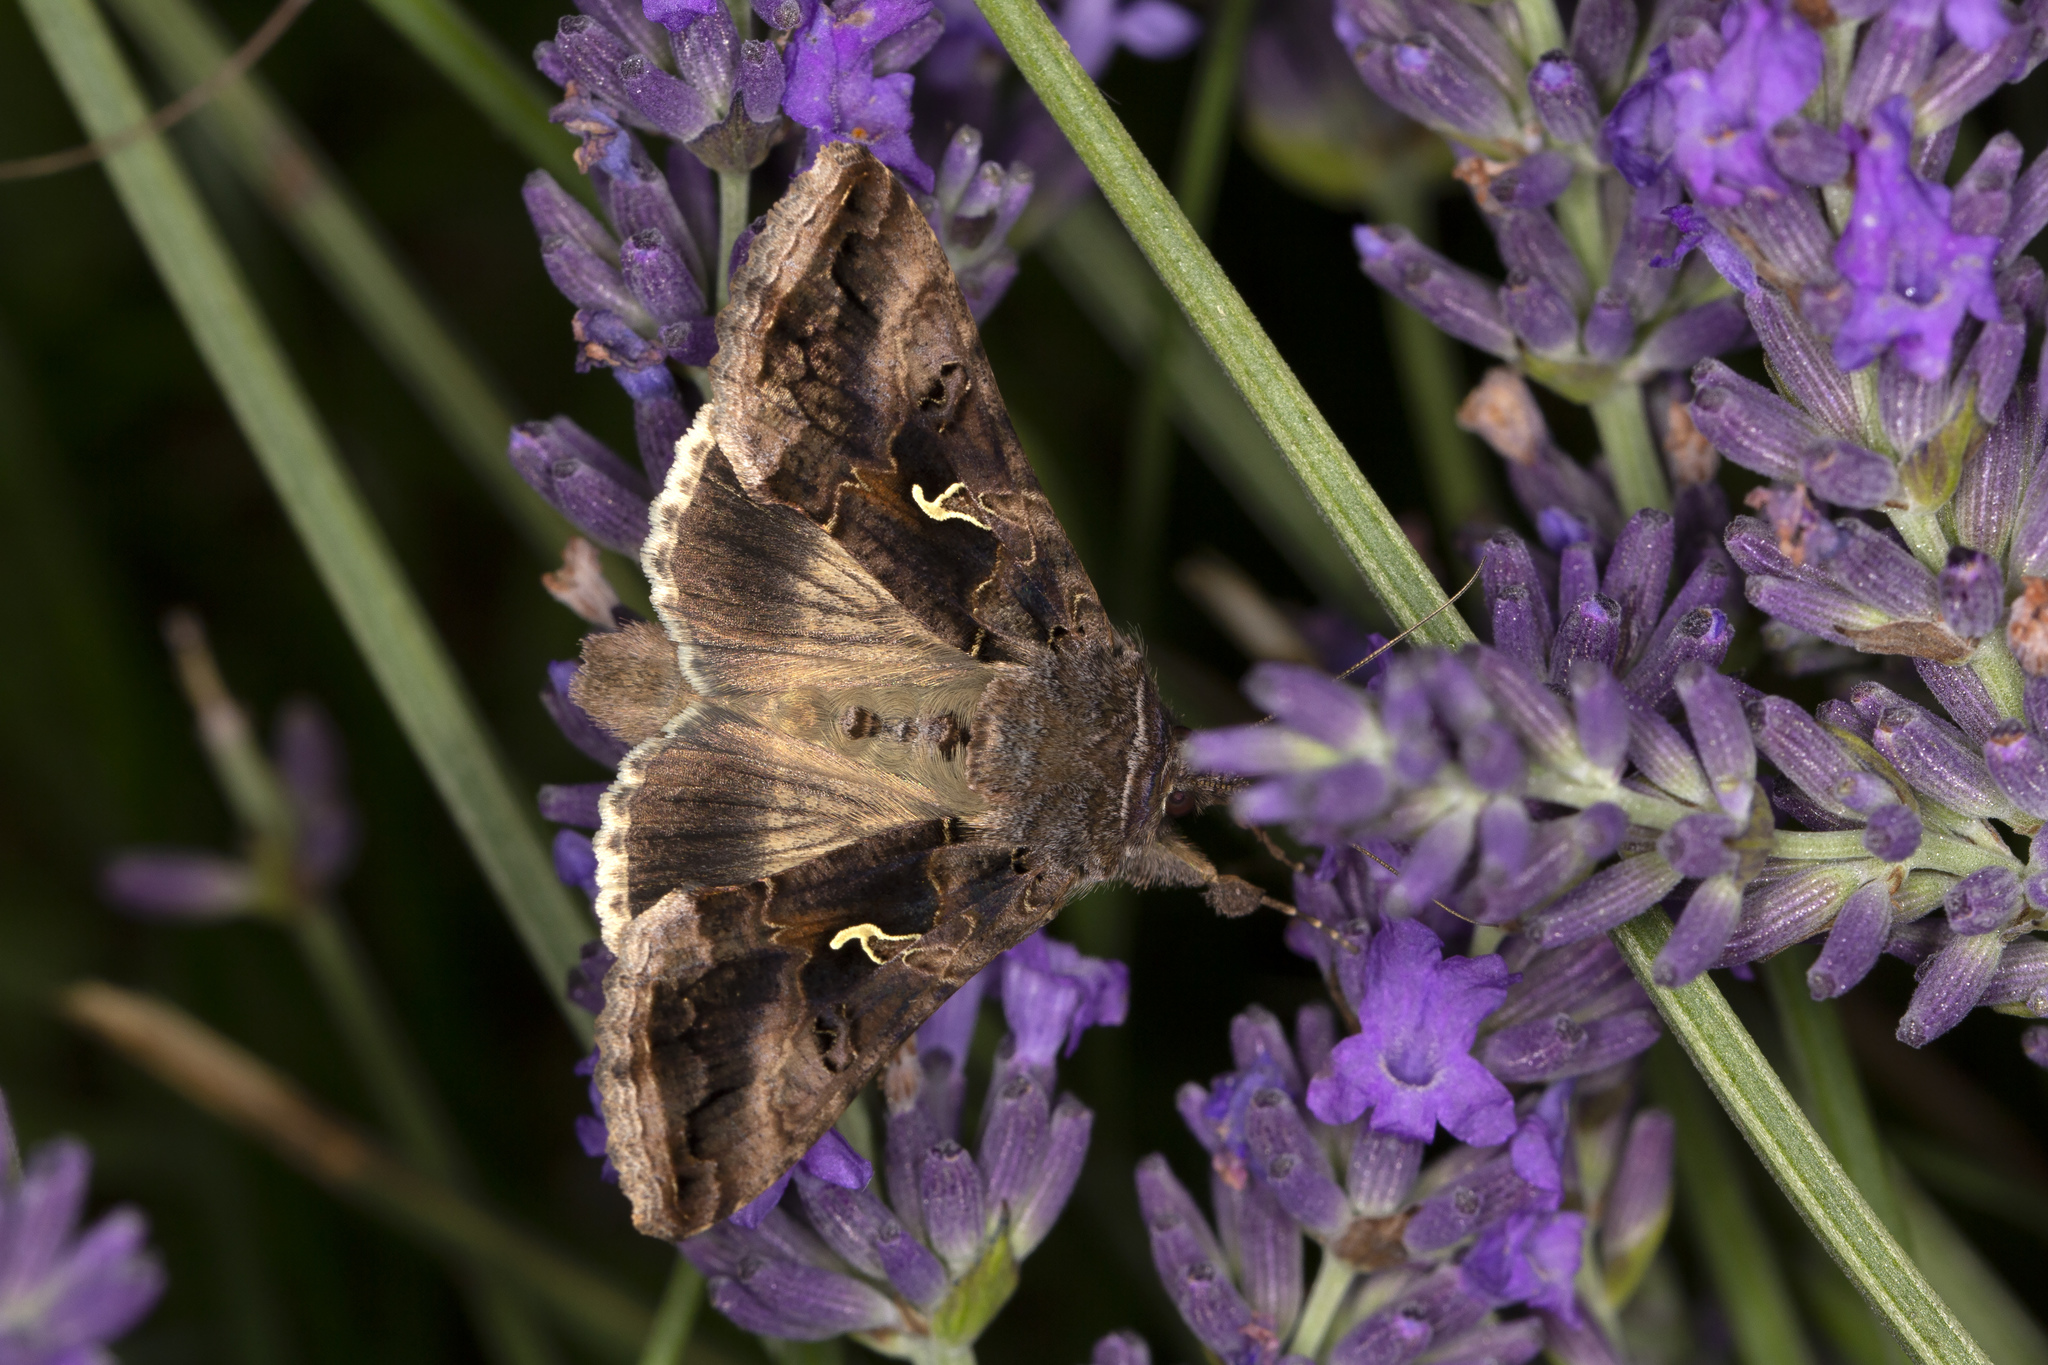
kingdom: Animalia
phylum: Arthropoda
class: Insecta
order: Lepidoptera
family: Noctuidae
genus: Autographa
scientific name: Autographa gamma
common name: Silver y
